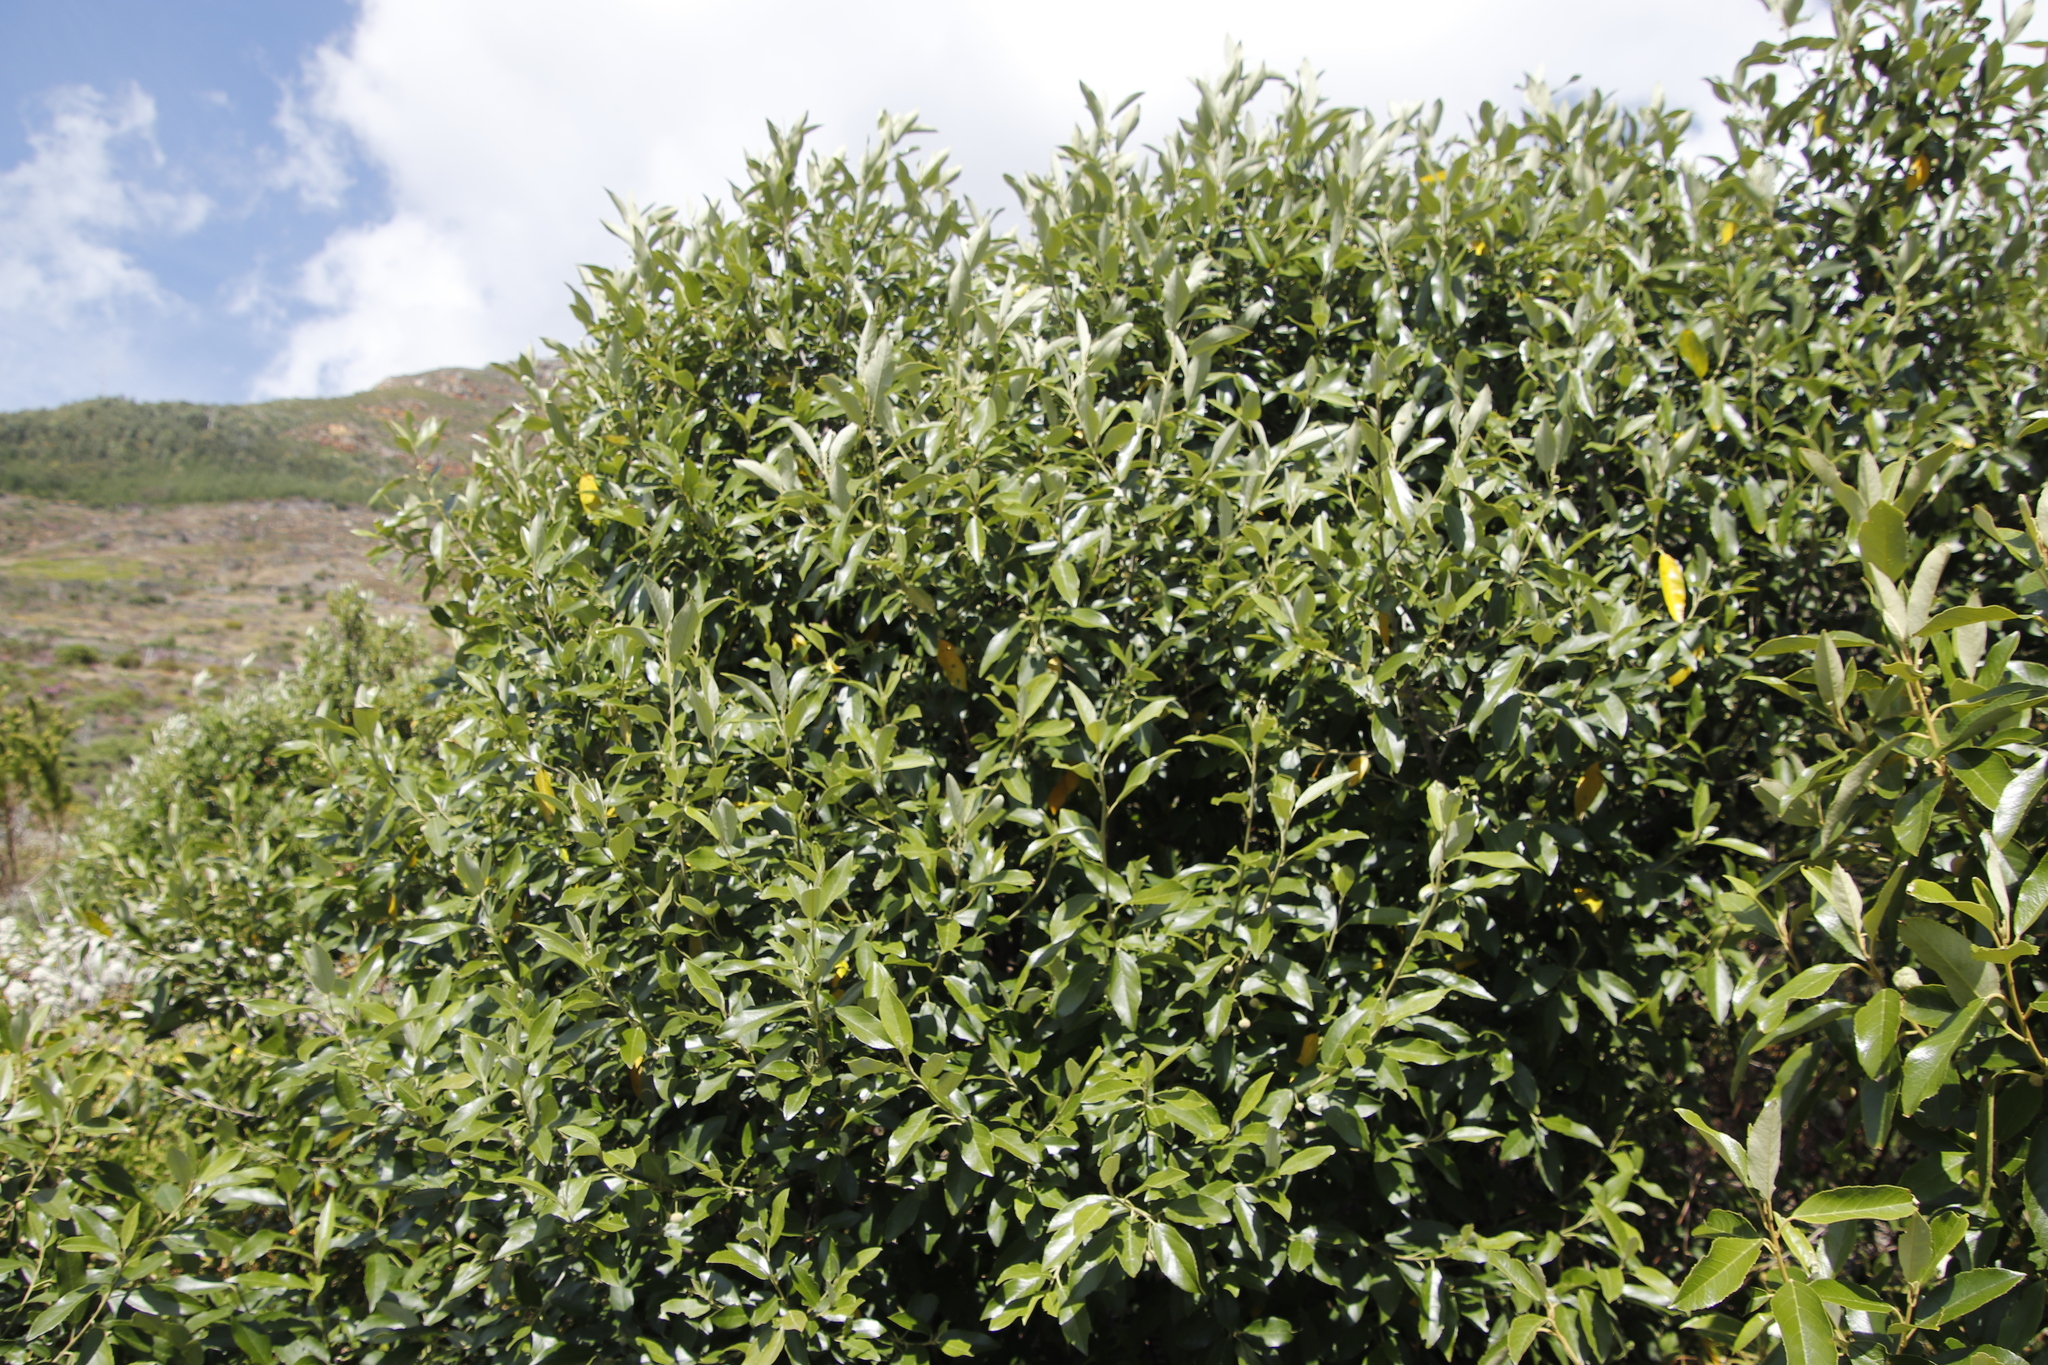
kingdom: Plantae
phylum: Tracheophyta
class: Magnoliopsida
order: Malpighiales
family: Achariaceae
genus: Kiggelaria
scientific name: Kiggelaria africana
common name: Wild peach
